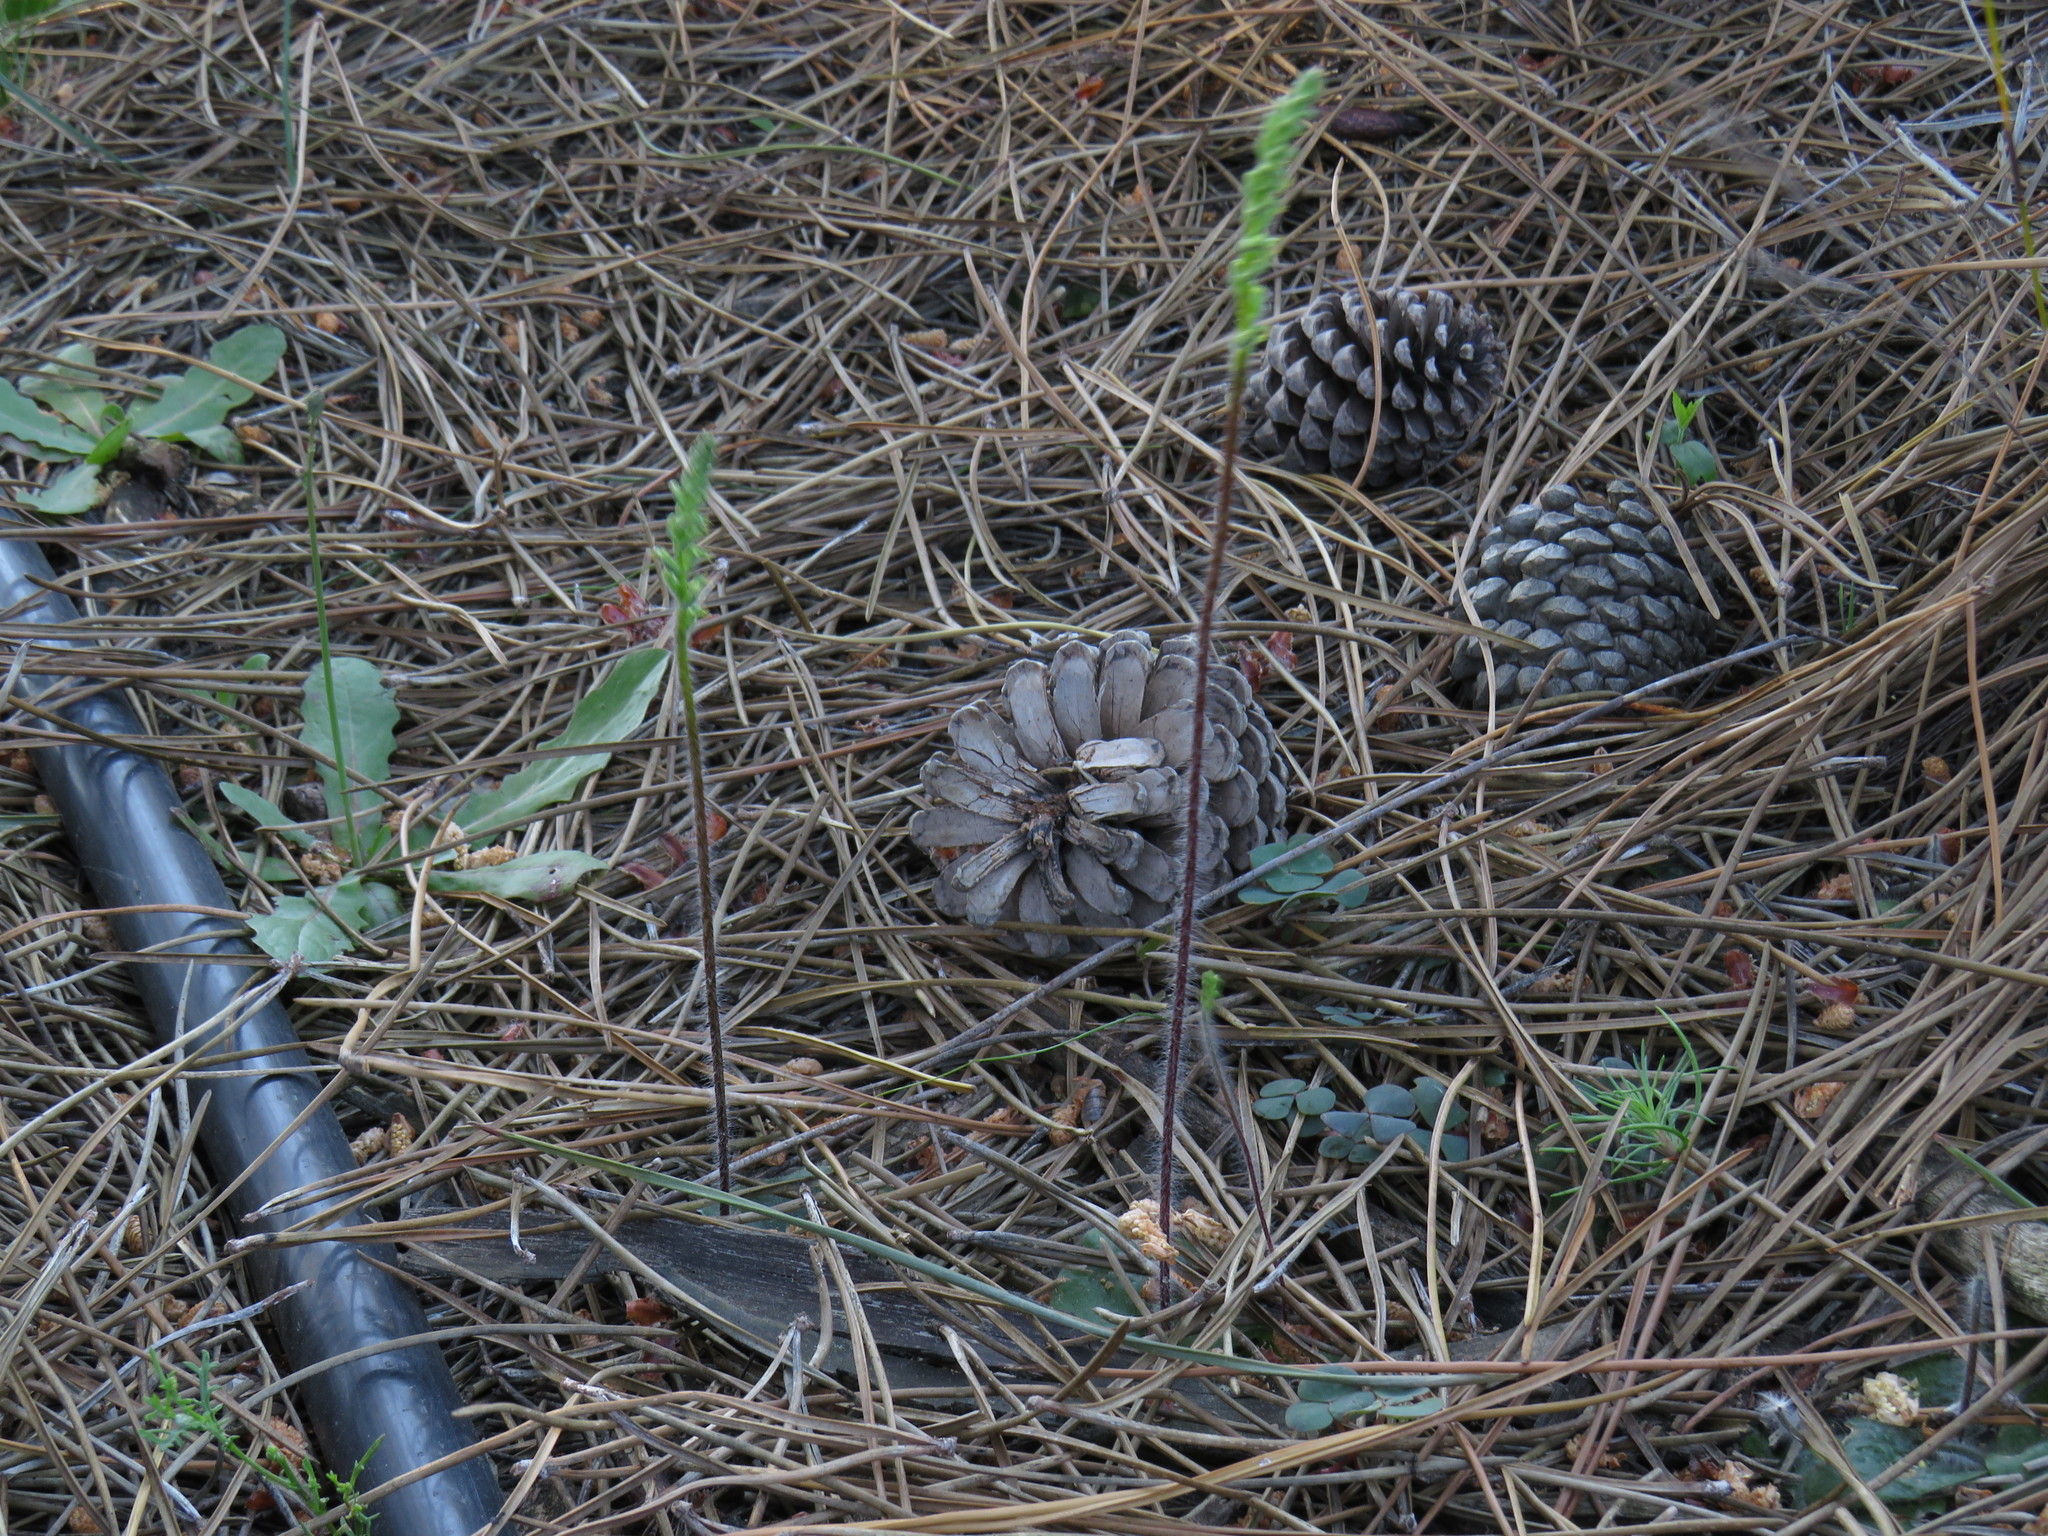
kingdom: Plantae
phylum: Tracheophyta
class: Liliopsida
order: Asparagales
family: Orchidaceae
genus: Holothrix
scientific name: Holothrix villosa
